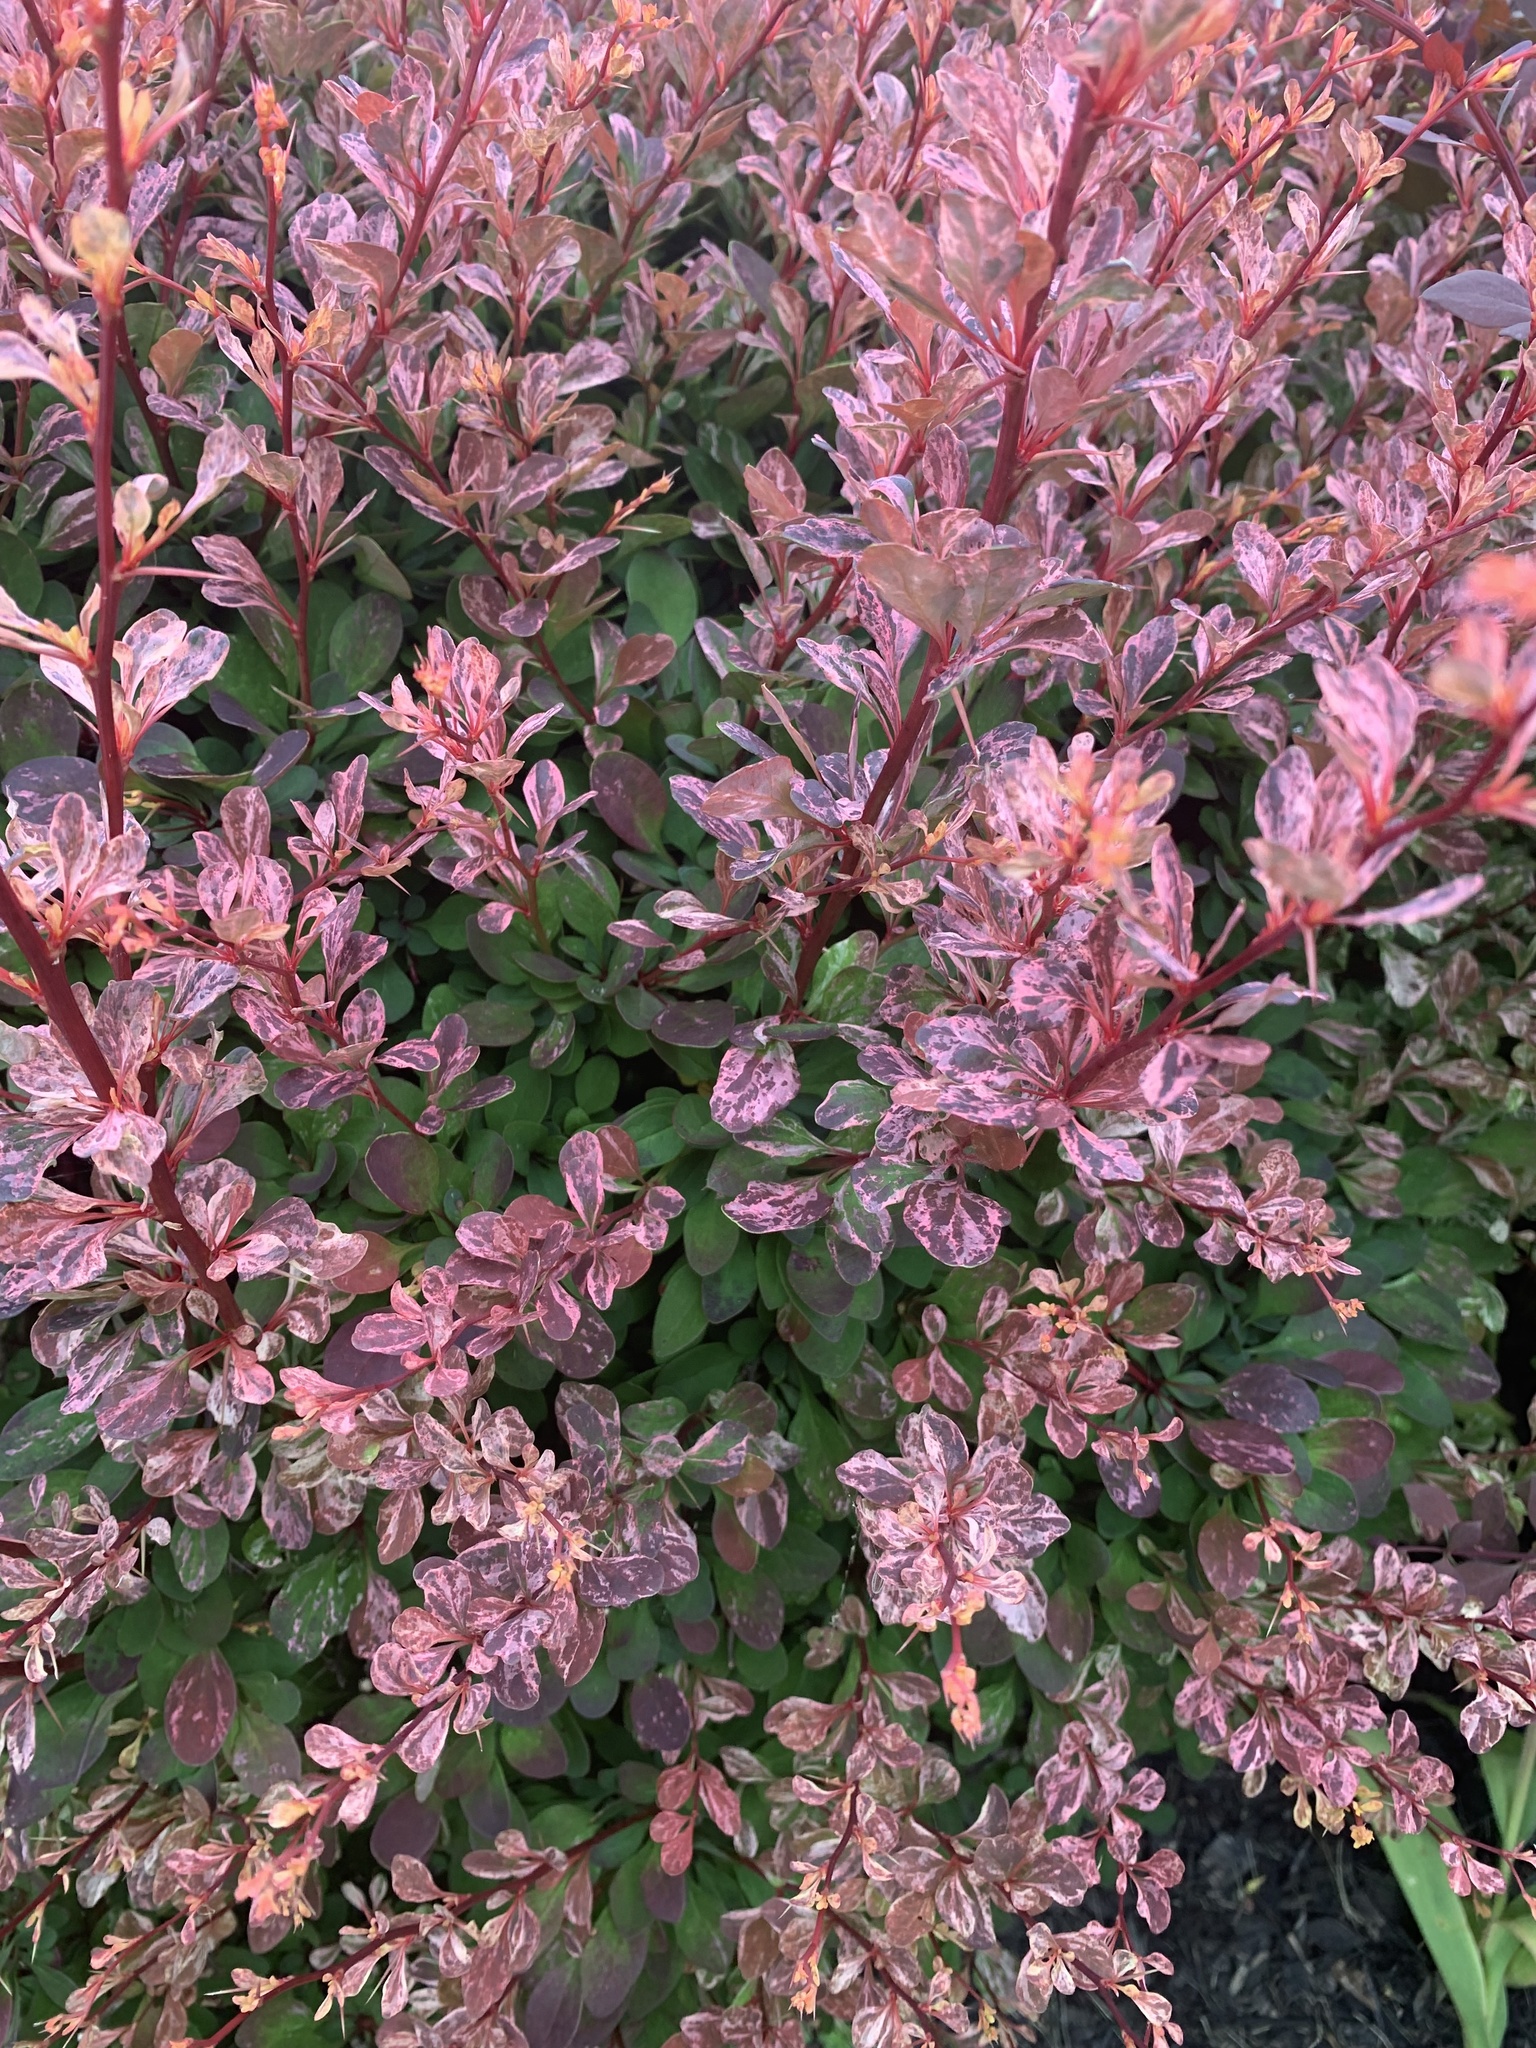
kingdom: Plantae
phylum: Tracheophyta
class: Magnoliopsida
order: Ranunculales
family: Berberidaceae
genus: Berberis
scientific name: Berberis thunbergii
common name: Japanese barberry
